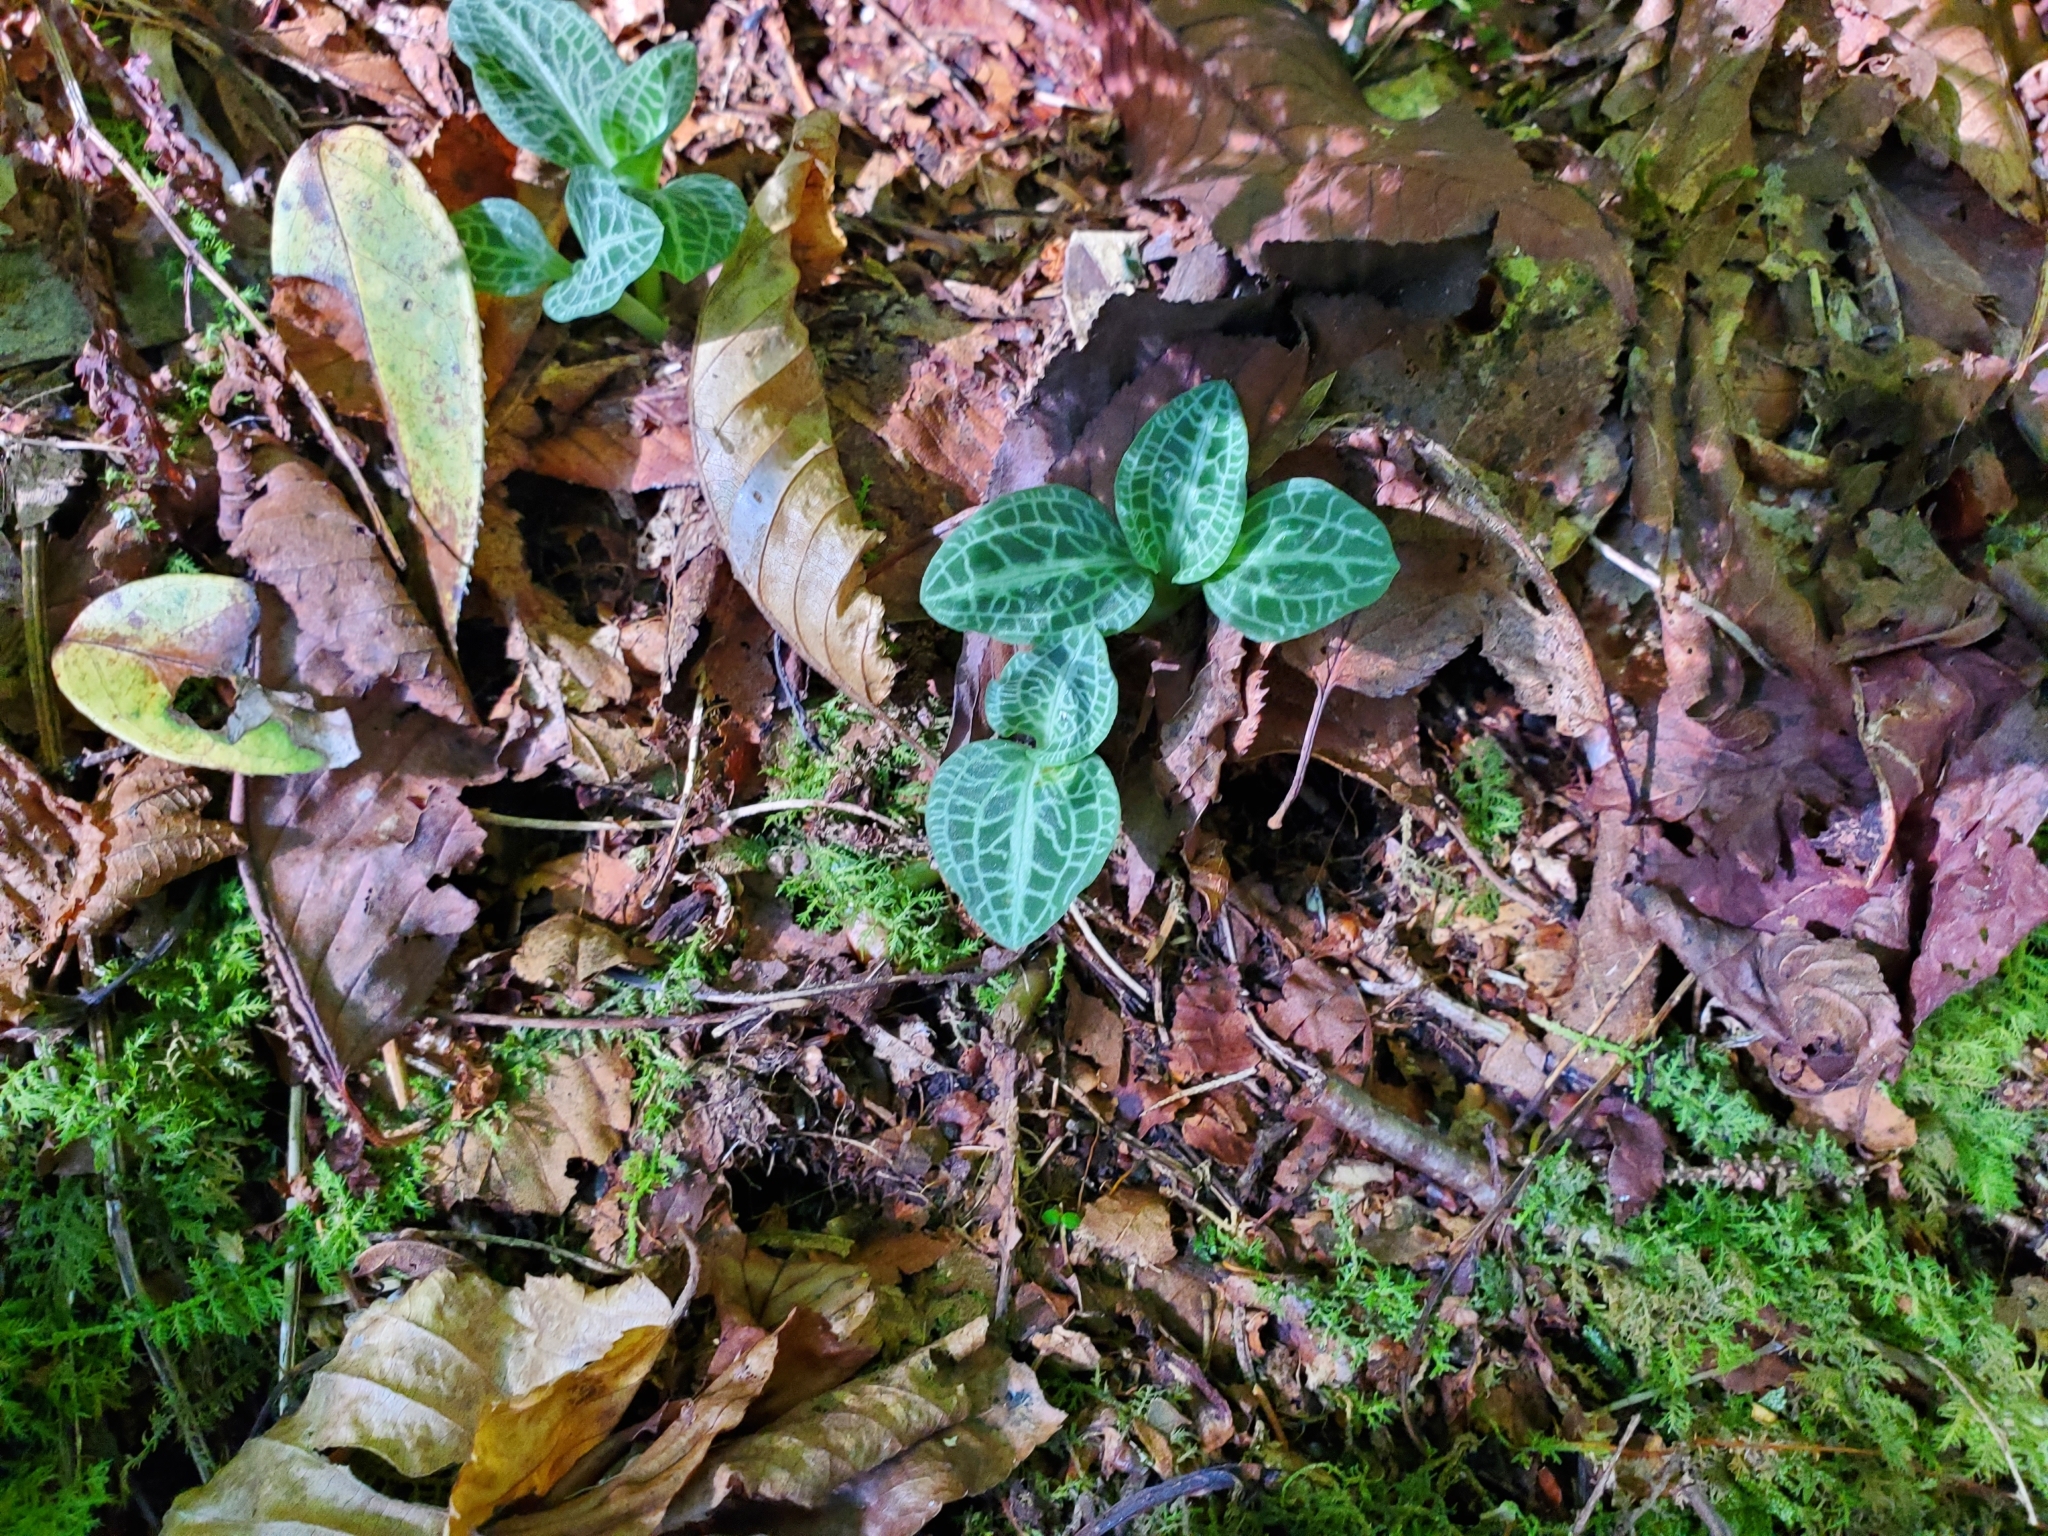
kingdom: Plantae
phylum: Tracheophyta
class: Liliopsida
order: Asparagales
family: Orchidaceae
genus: Goodyera
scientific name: Goodyera pubescens
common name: Downy rattlesnake-plantain
